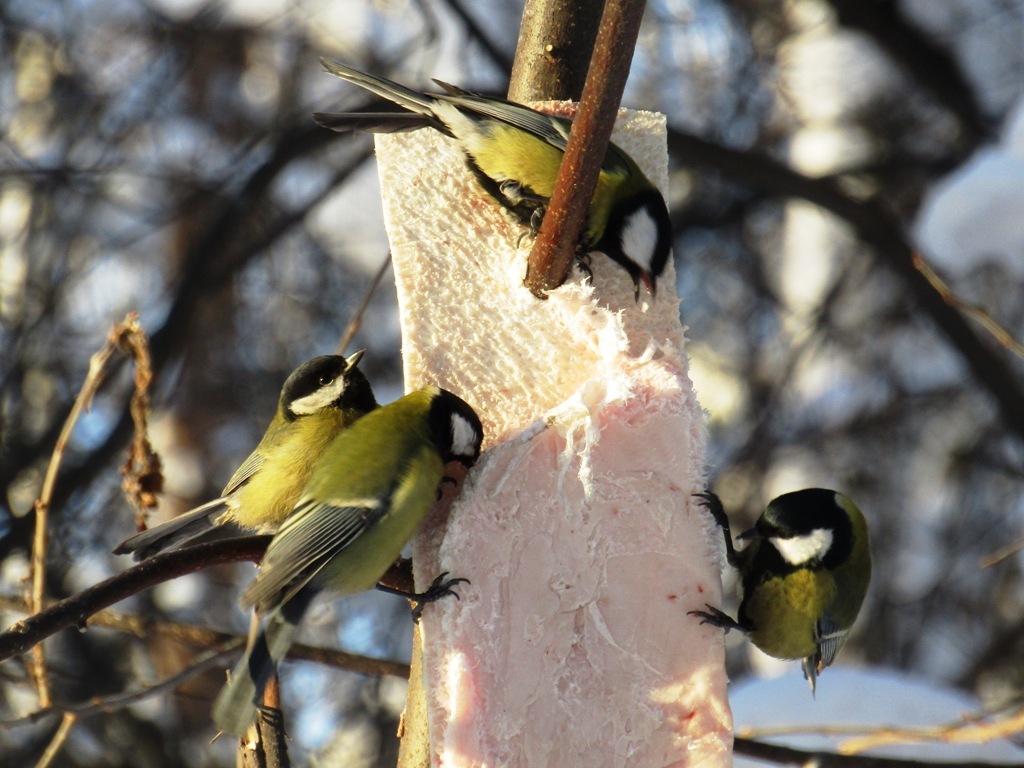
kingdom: Animalia
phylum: Chordata
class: Aves
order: Passeriformes
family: Paridae
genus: Parus
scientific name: Parus major
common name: Great tit
